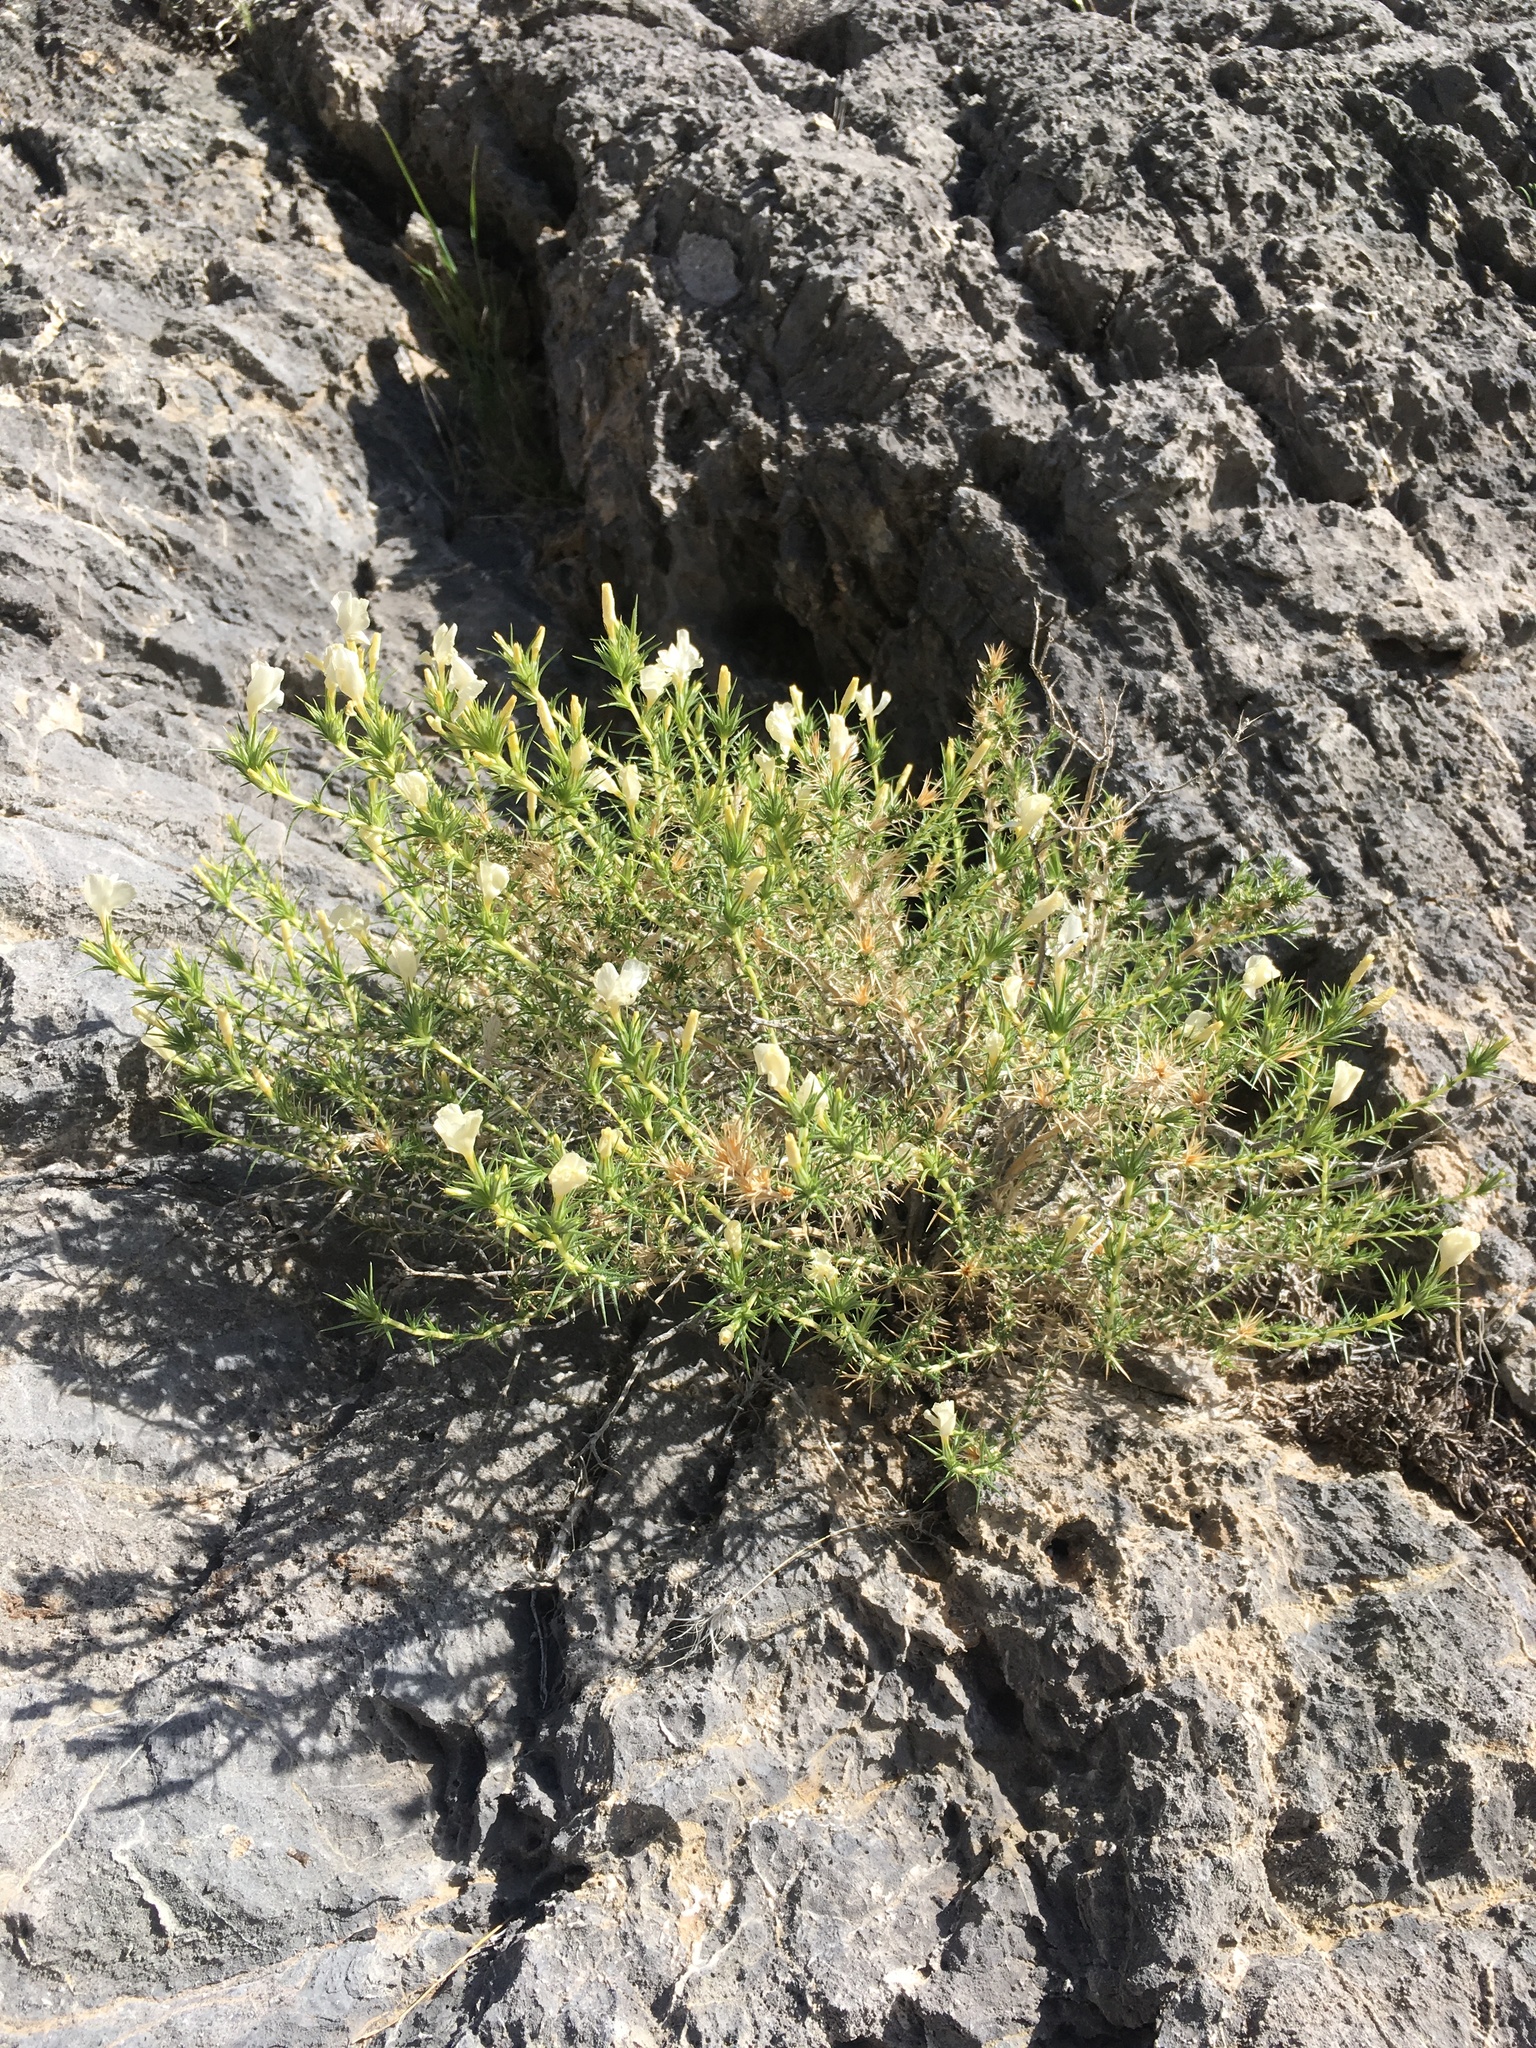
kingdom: Plantae
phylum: Tracheophyta
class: Magnoliopsida
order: Ericales
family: Polemoniaceae
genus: Linanthus
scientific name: Linanthus pungens
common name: Granite prickly phlox
